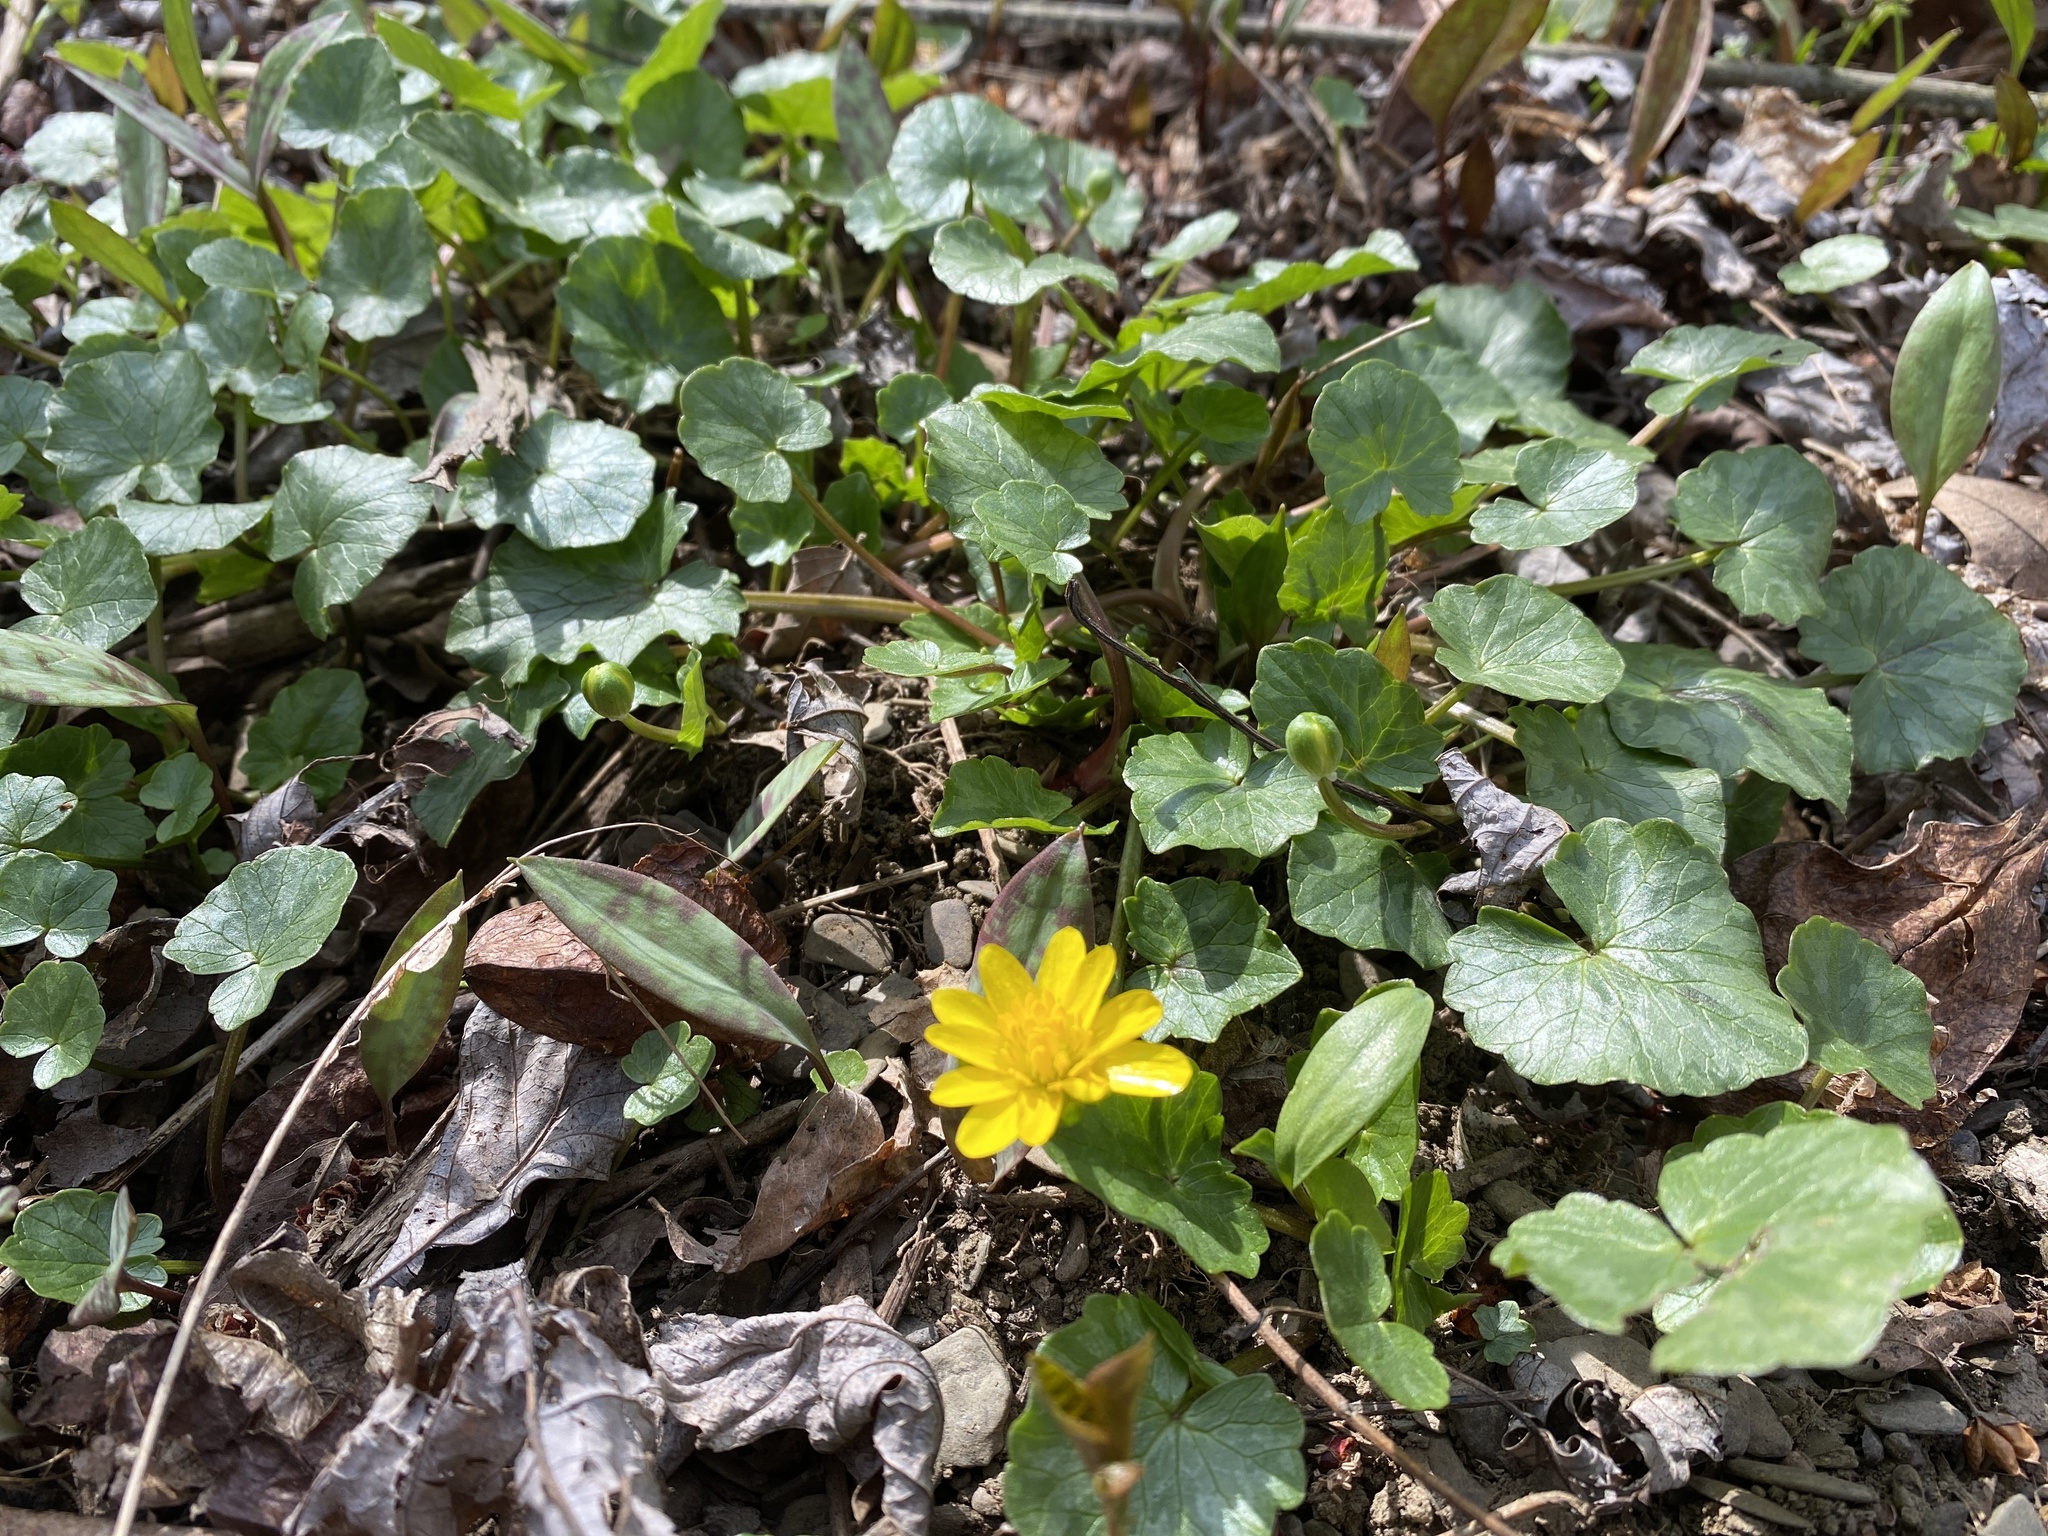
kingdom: Plantae
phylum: Tracheophyta
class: Magnoliopsida
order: Ranunculales
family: Ranunculaceae
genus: Ficaria
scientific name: Ficaria verna
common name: Lesser celandine
